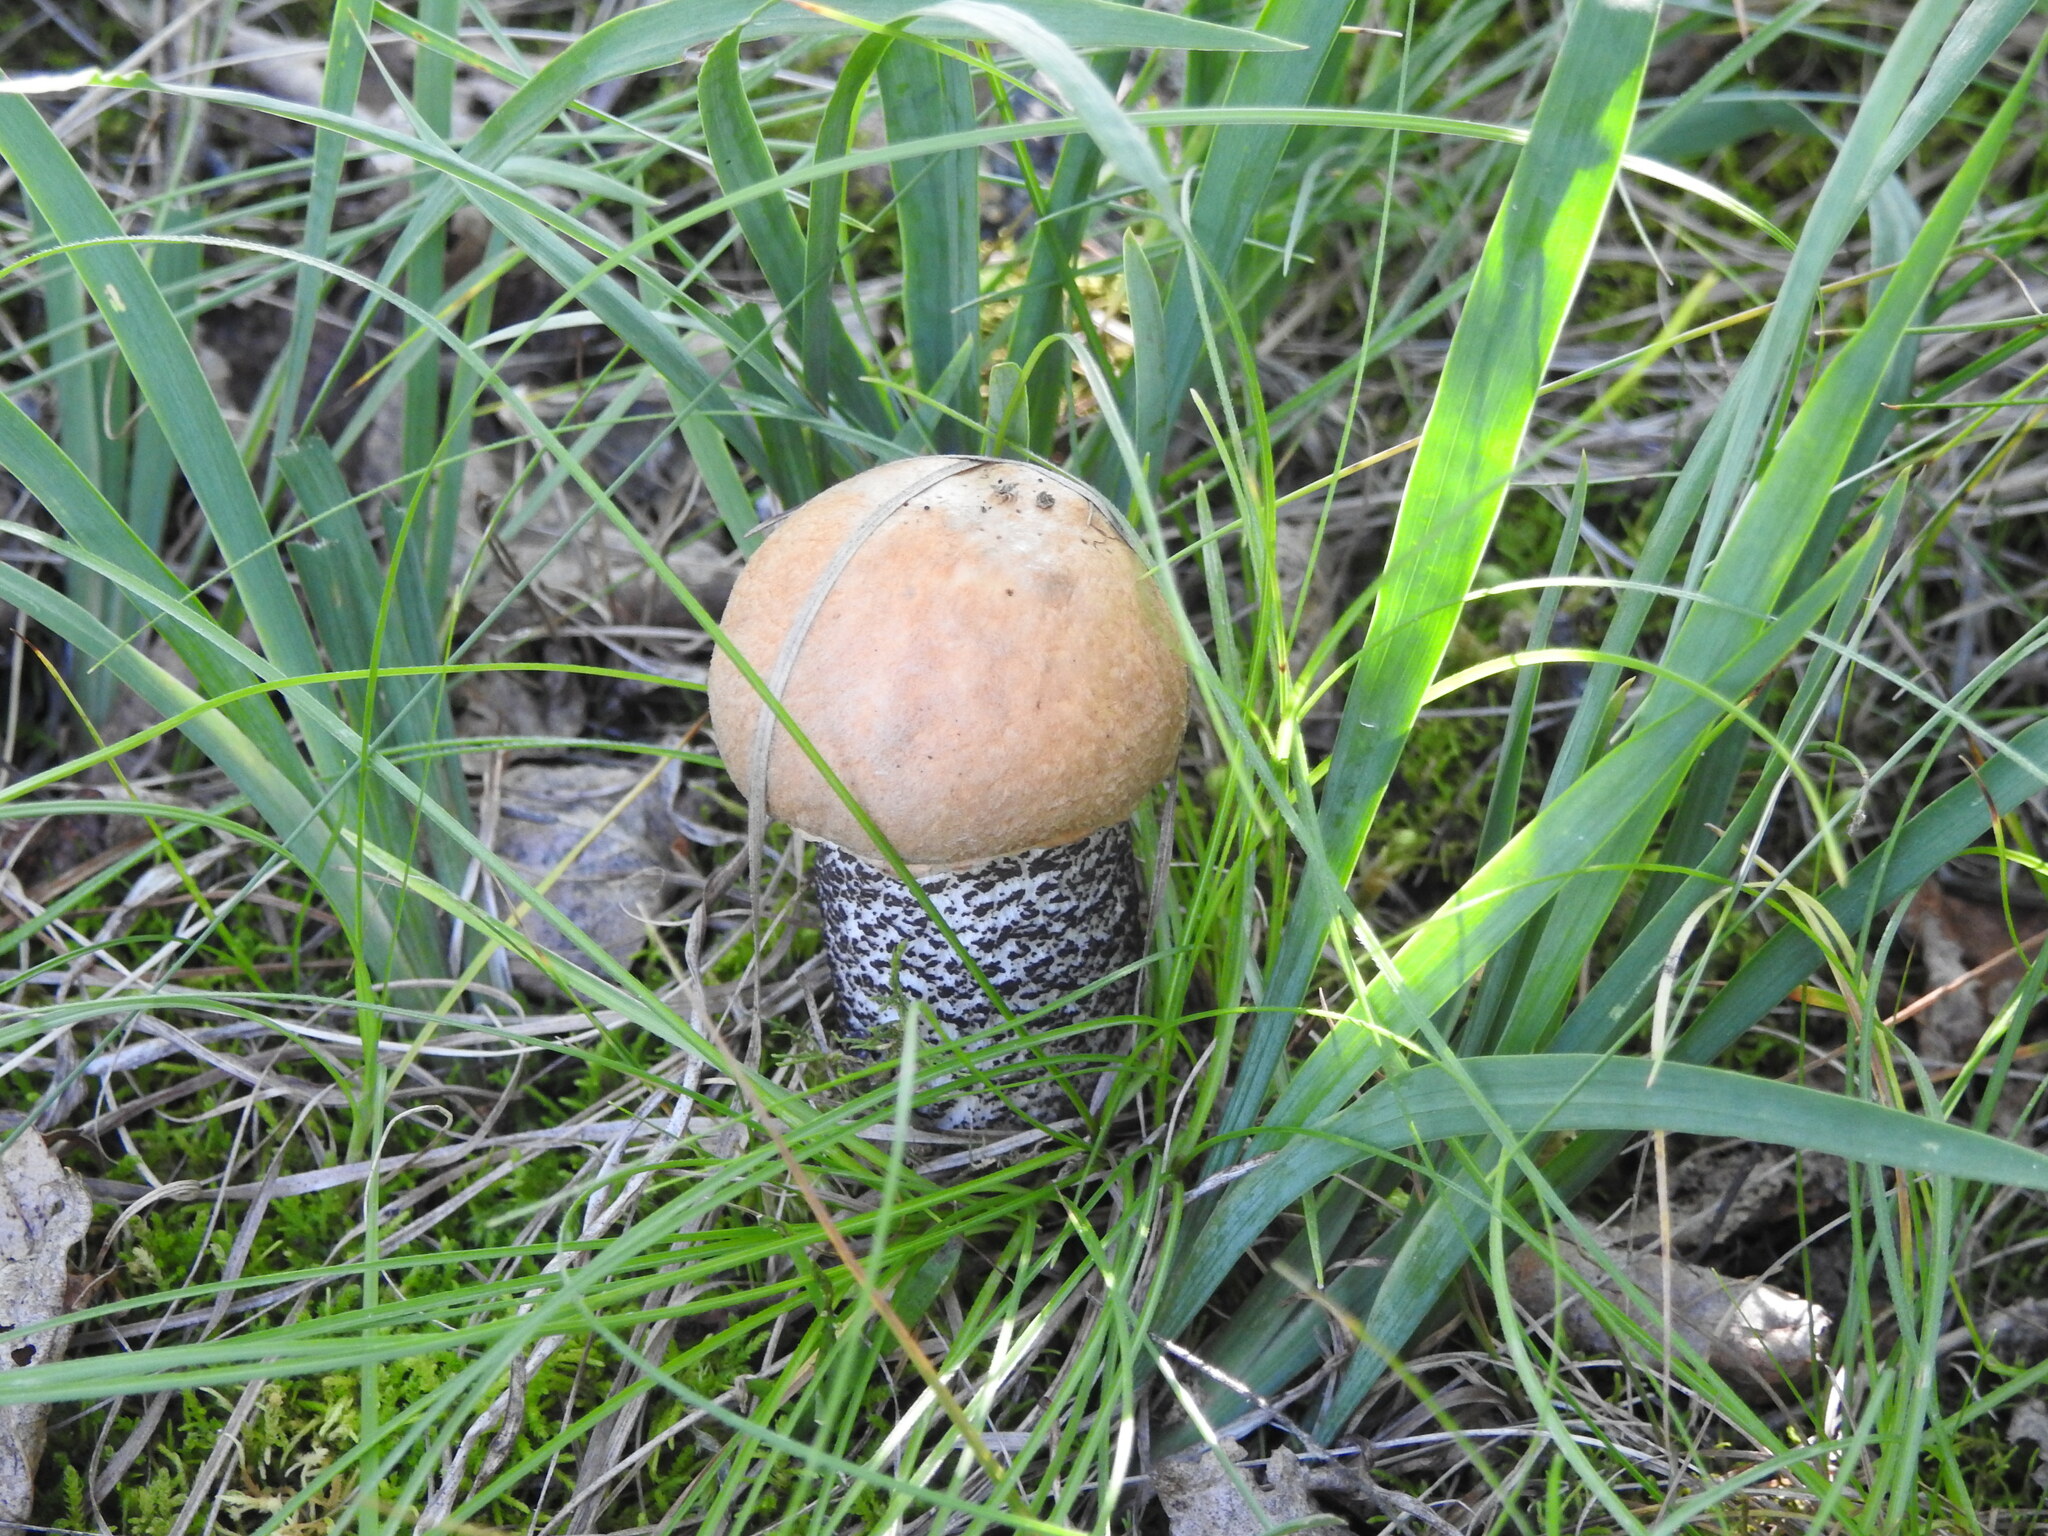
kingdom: Fungi
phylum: Basidiomycota
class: Agaricomycetes
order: Boletales
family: Boletaceae
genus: Leccinum
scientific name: Leccinum versipelle
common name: Orange birch bolete
